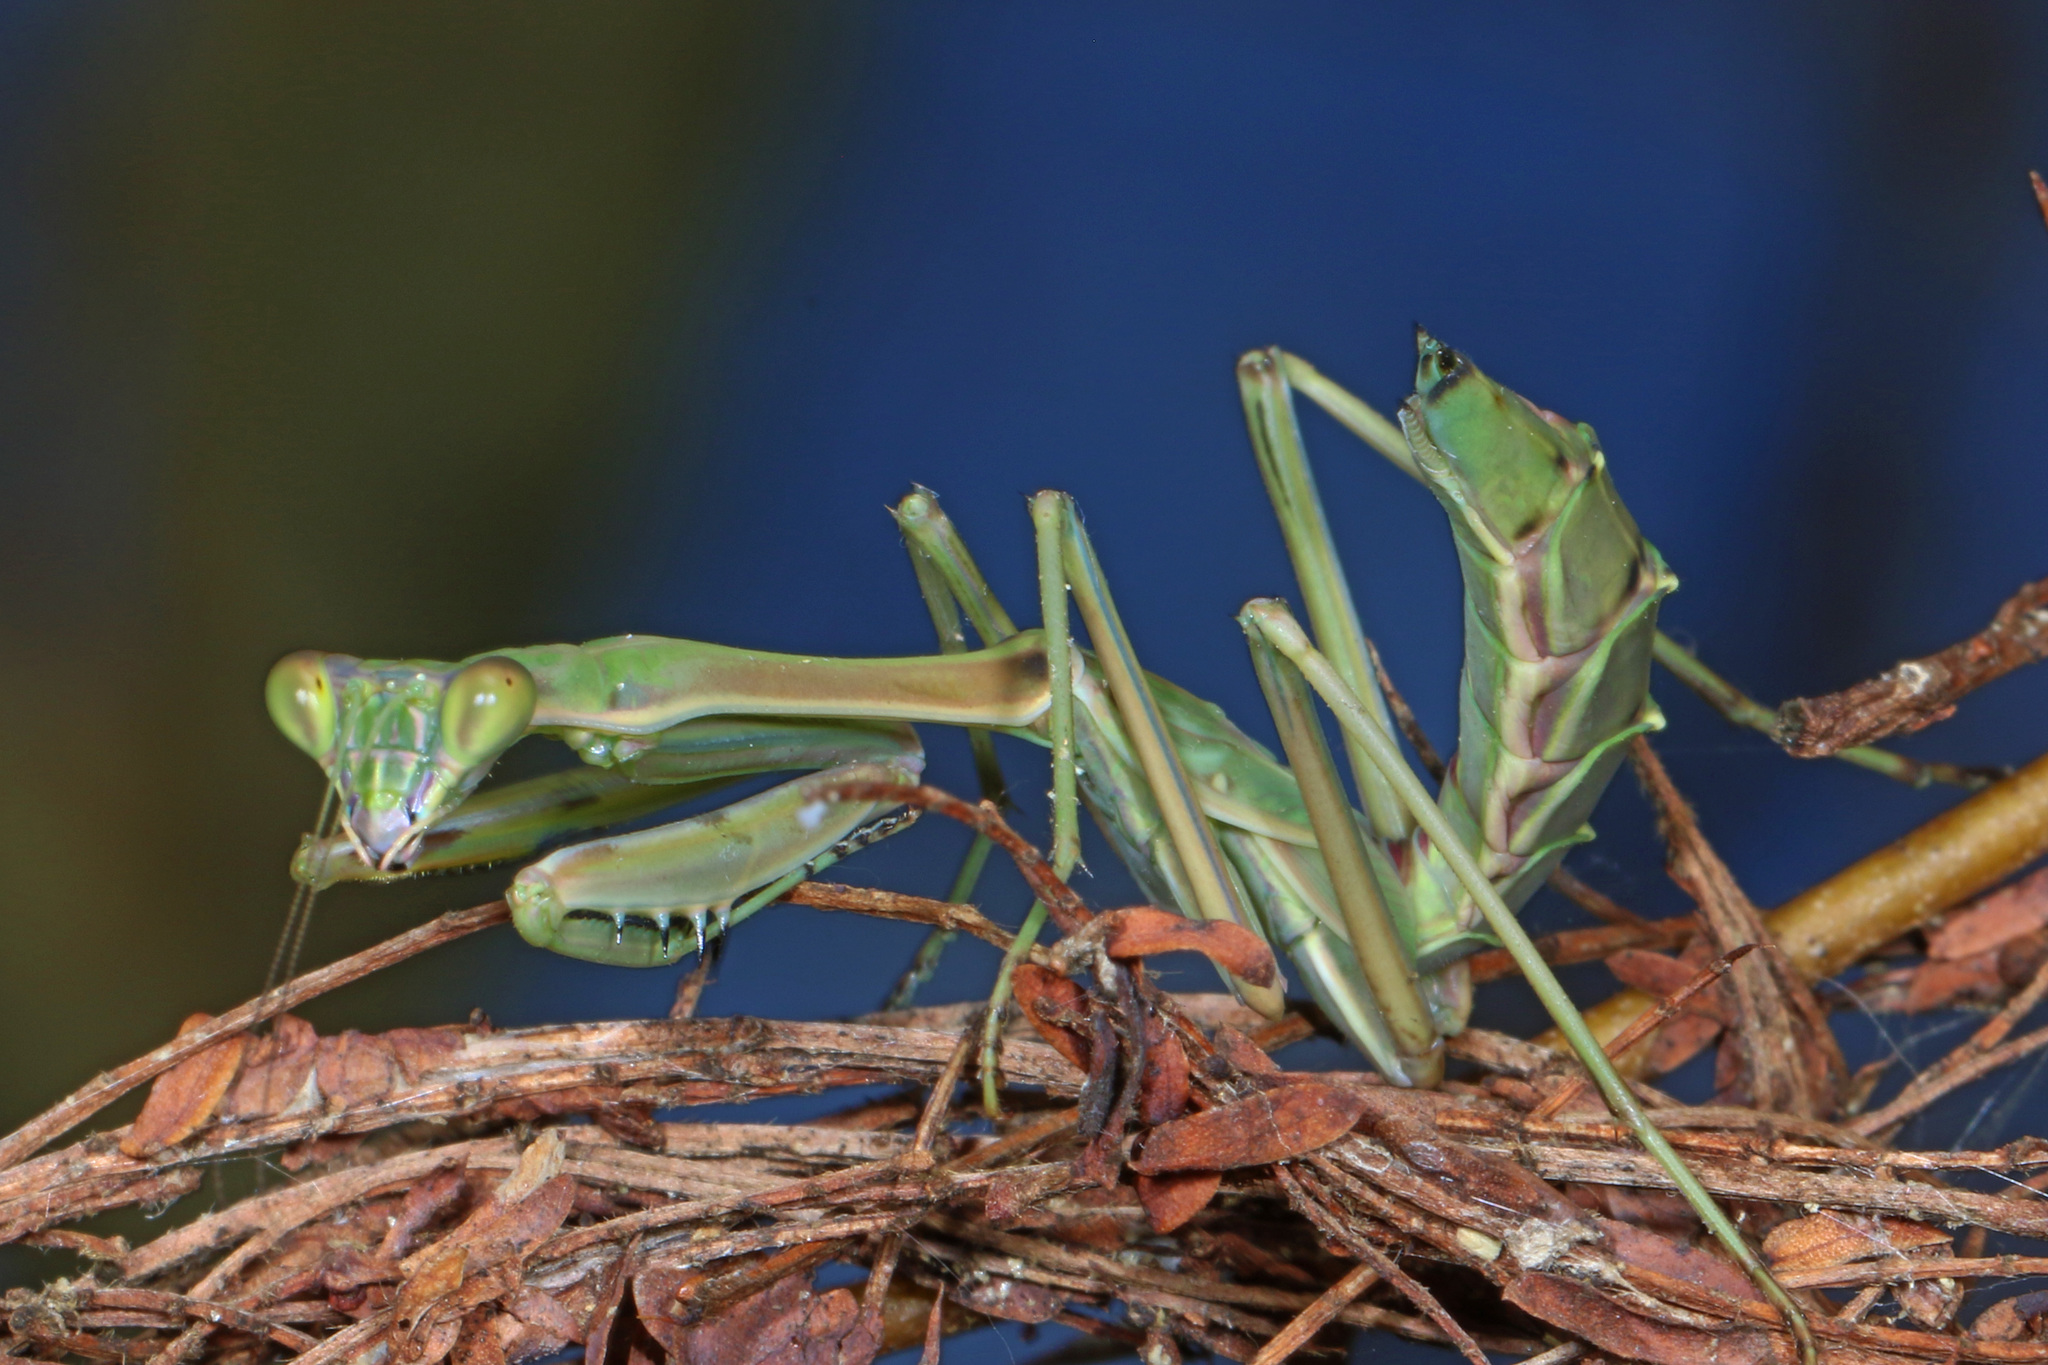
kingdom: Animalia
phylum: Arthropoda
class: Insecta
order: Mantodea
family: Mantidae
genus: Omomantis
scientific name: Omomantis zebrata
